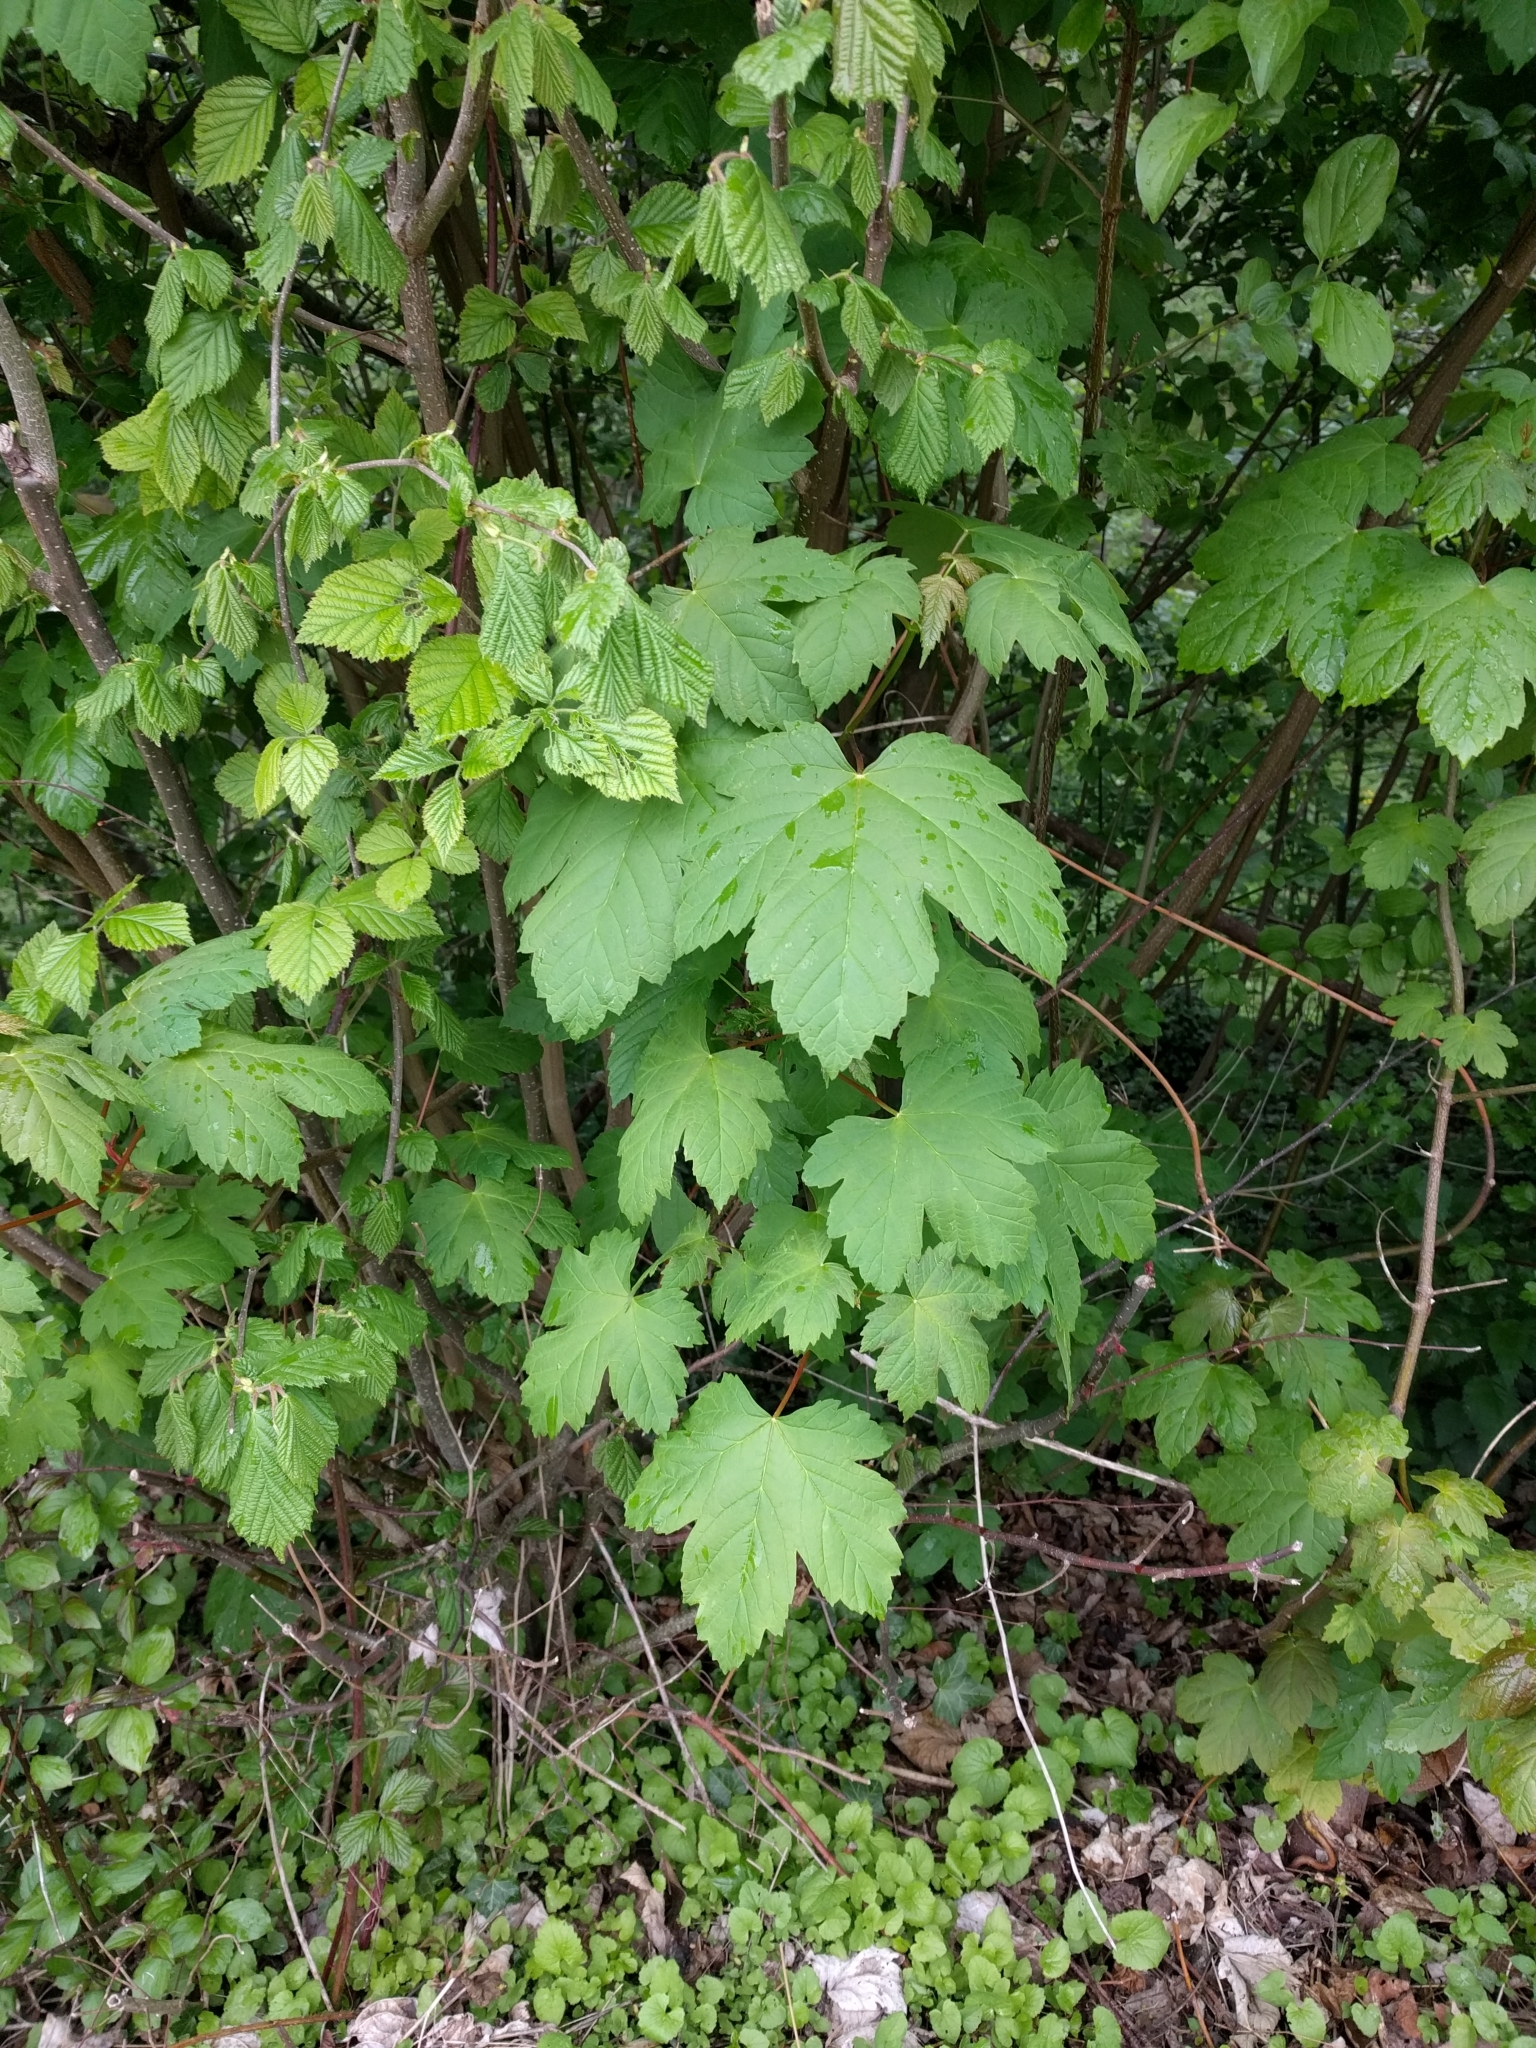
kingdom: Plantae
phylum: Tracheophyta
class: Magnoliopsida
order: Sapindales
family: Sapindaceae
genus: Acer
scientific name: Acer pseudoplatanus
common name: Sycamore
